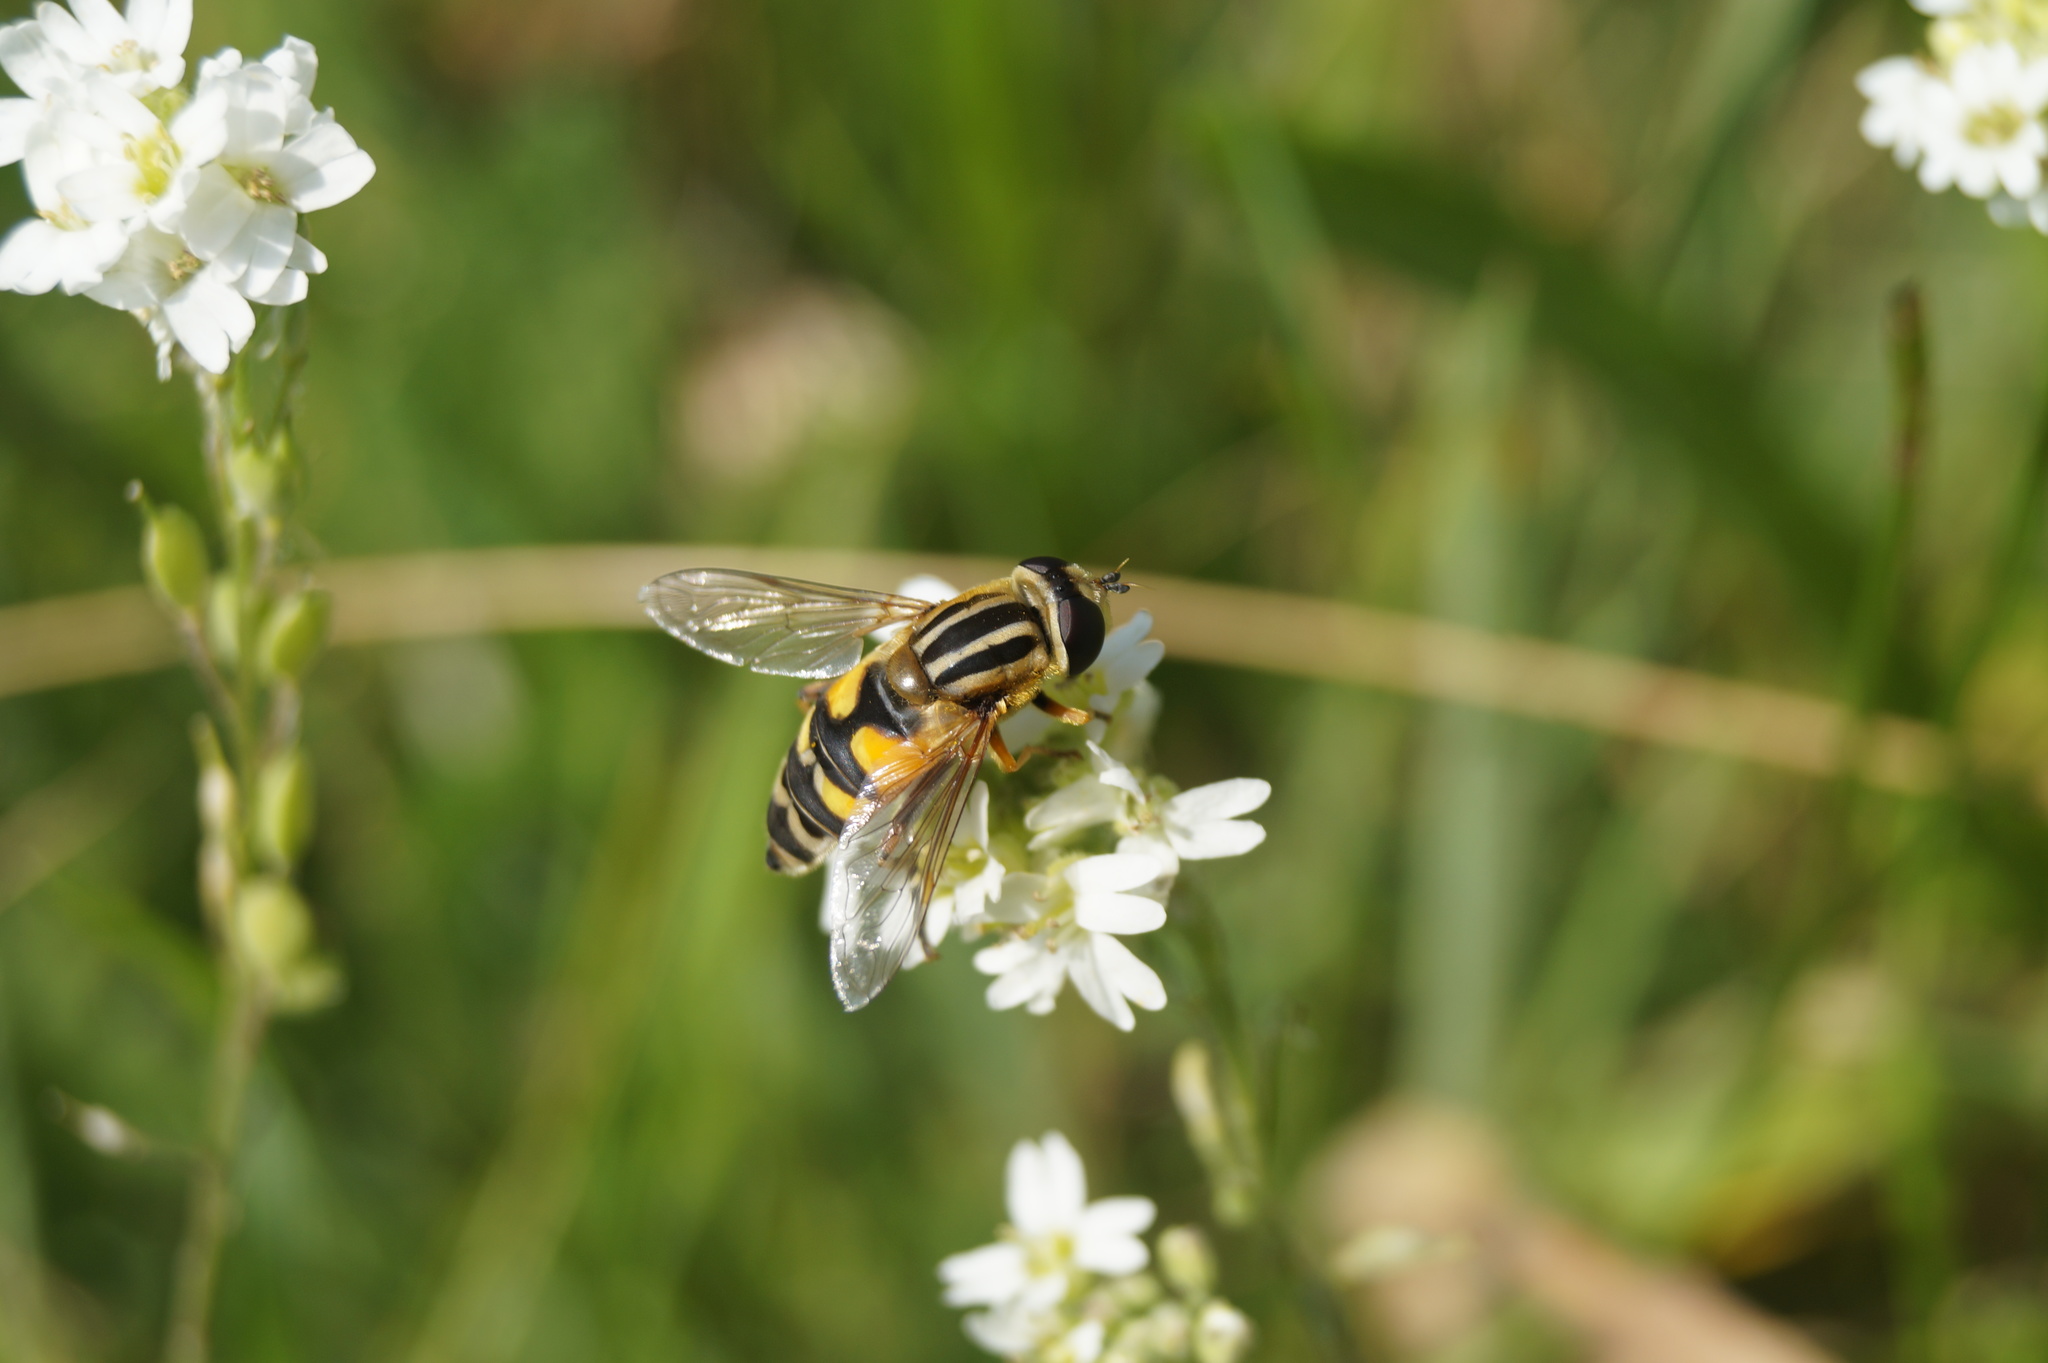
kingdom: Animalia
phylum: Arthropoda
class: Insecta
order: Diptera
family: Syrphidae
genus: Helophilus
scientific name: Helophilus trivittatus
